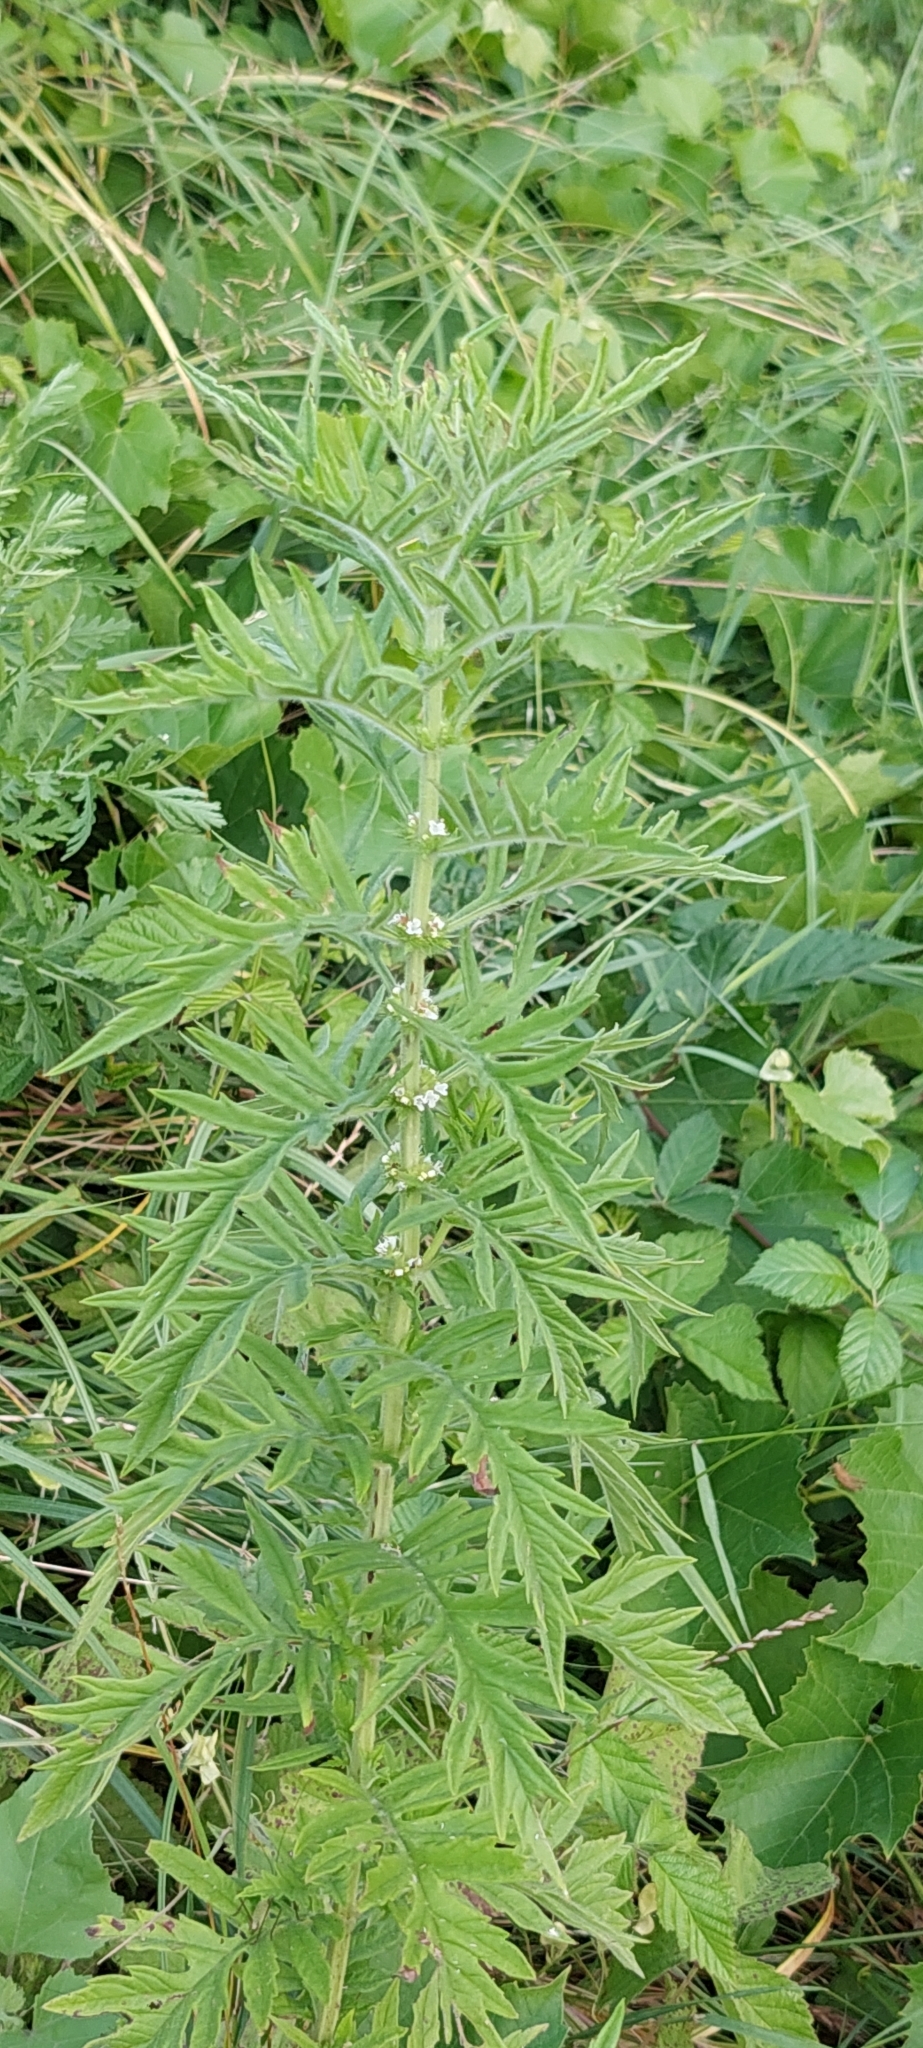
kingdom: Plantae
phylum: Tracheophyta
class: Magnoliopsida
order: Lamiales
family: Lamiaceae
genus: Lycopus
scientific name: Lycopus exaltatus
